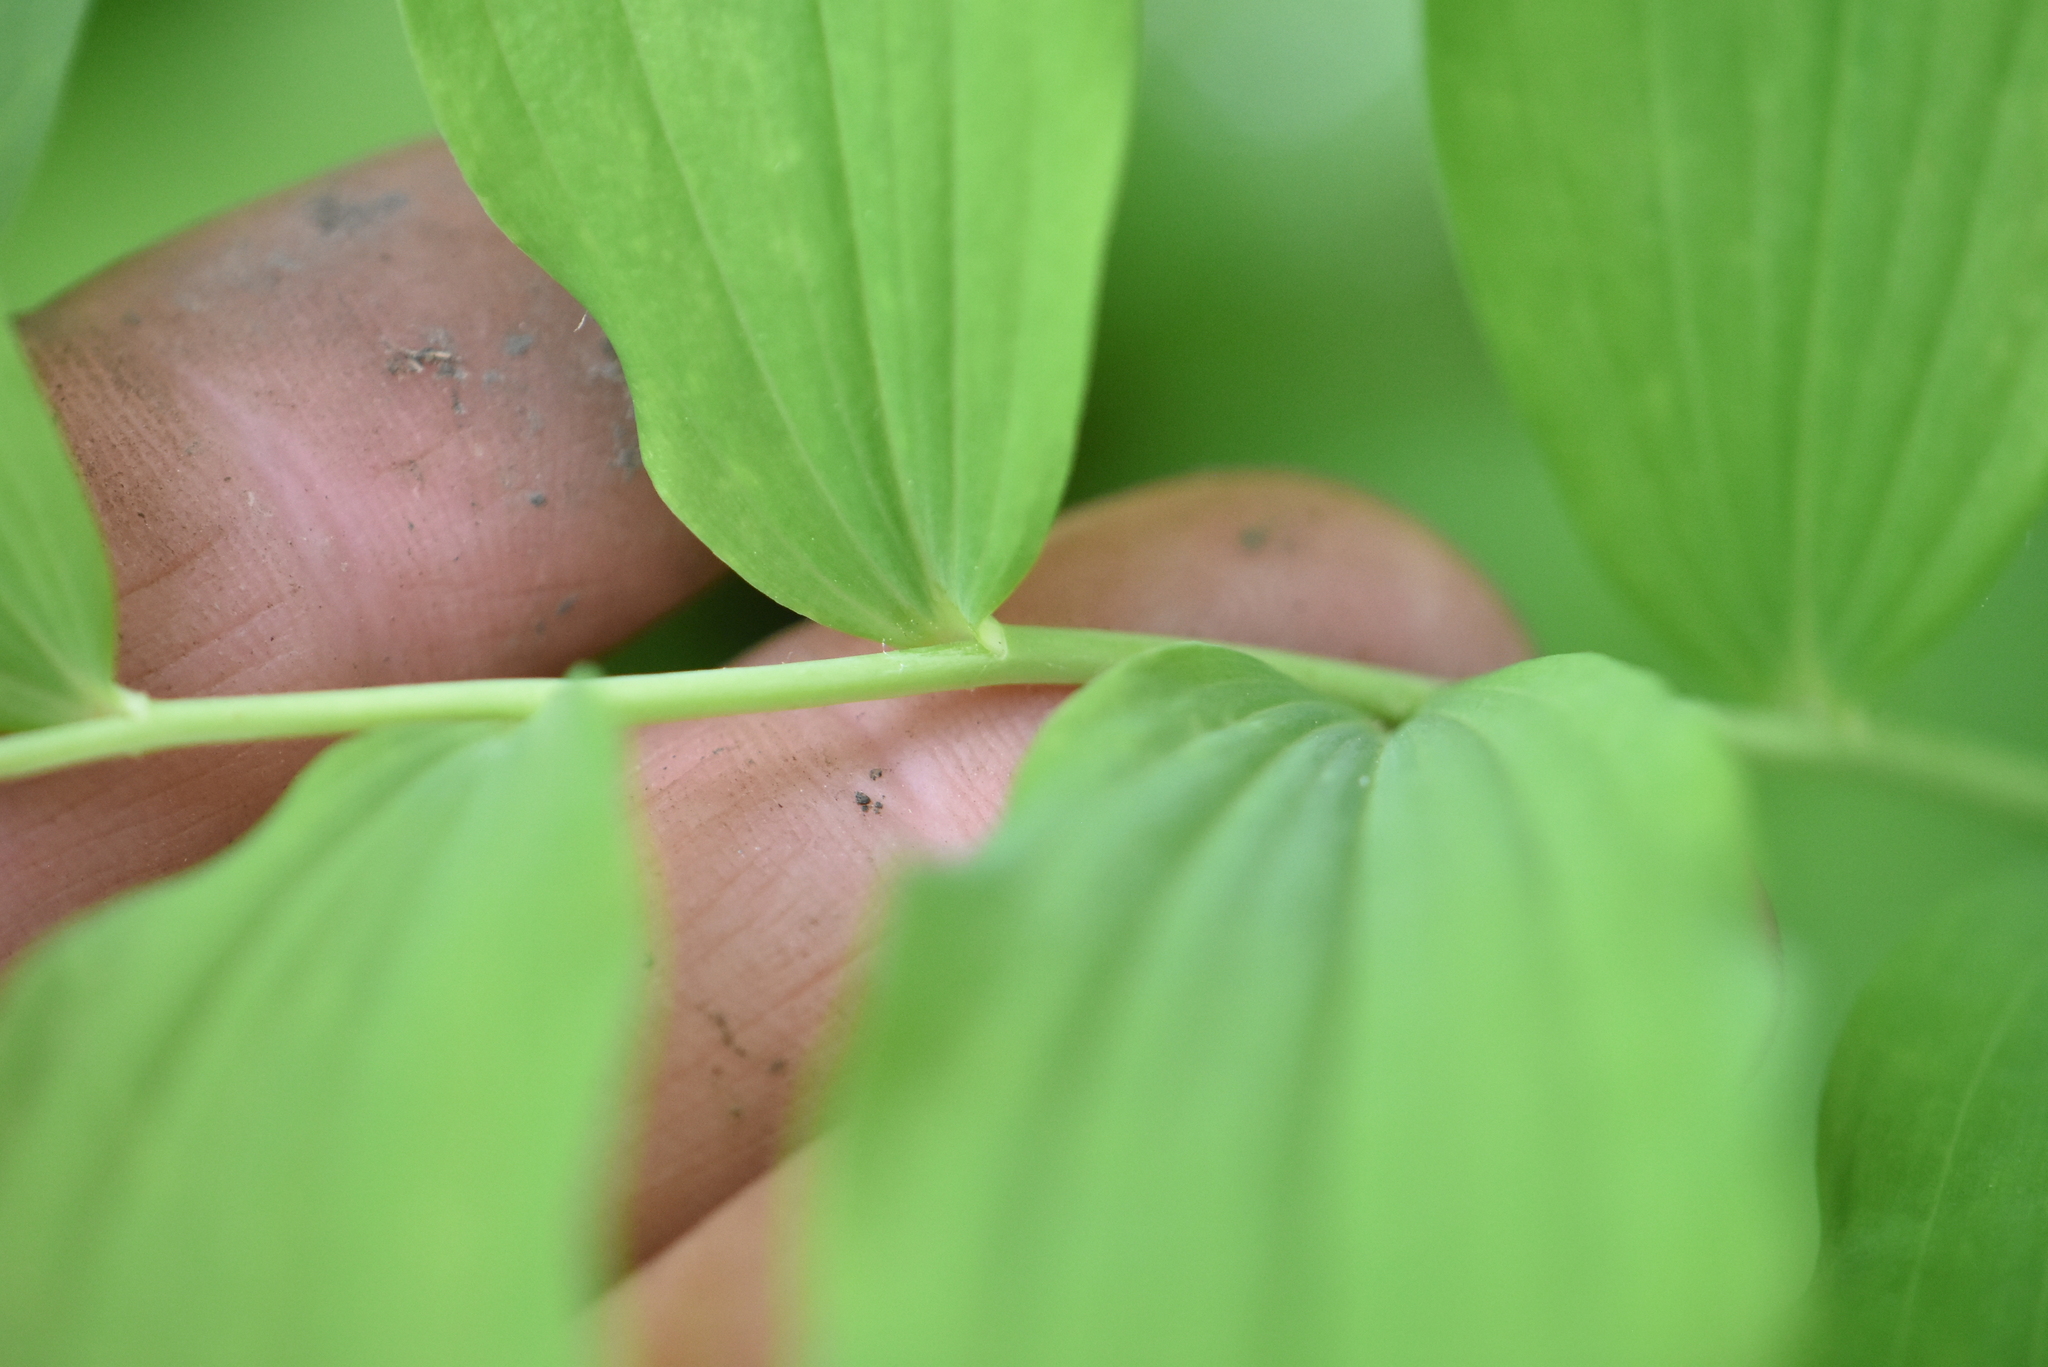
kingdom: Plantae
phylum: Tracheophyta
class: Liliopsida
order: Asparagales
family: Asparagaceae
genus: Polygonatum
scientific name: Polygonatum multiflorum
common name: Solomon's-seal
